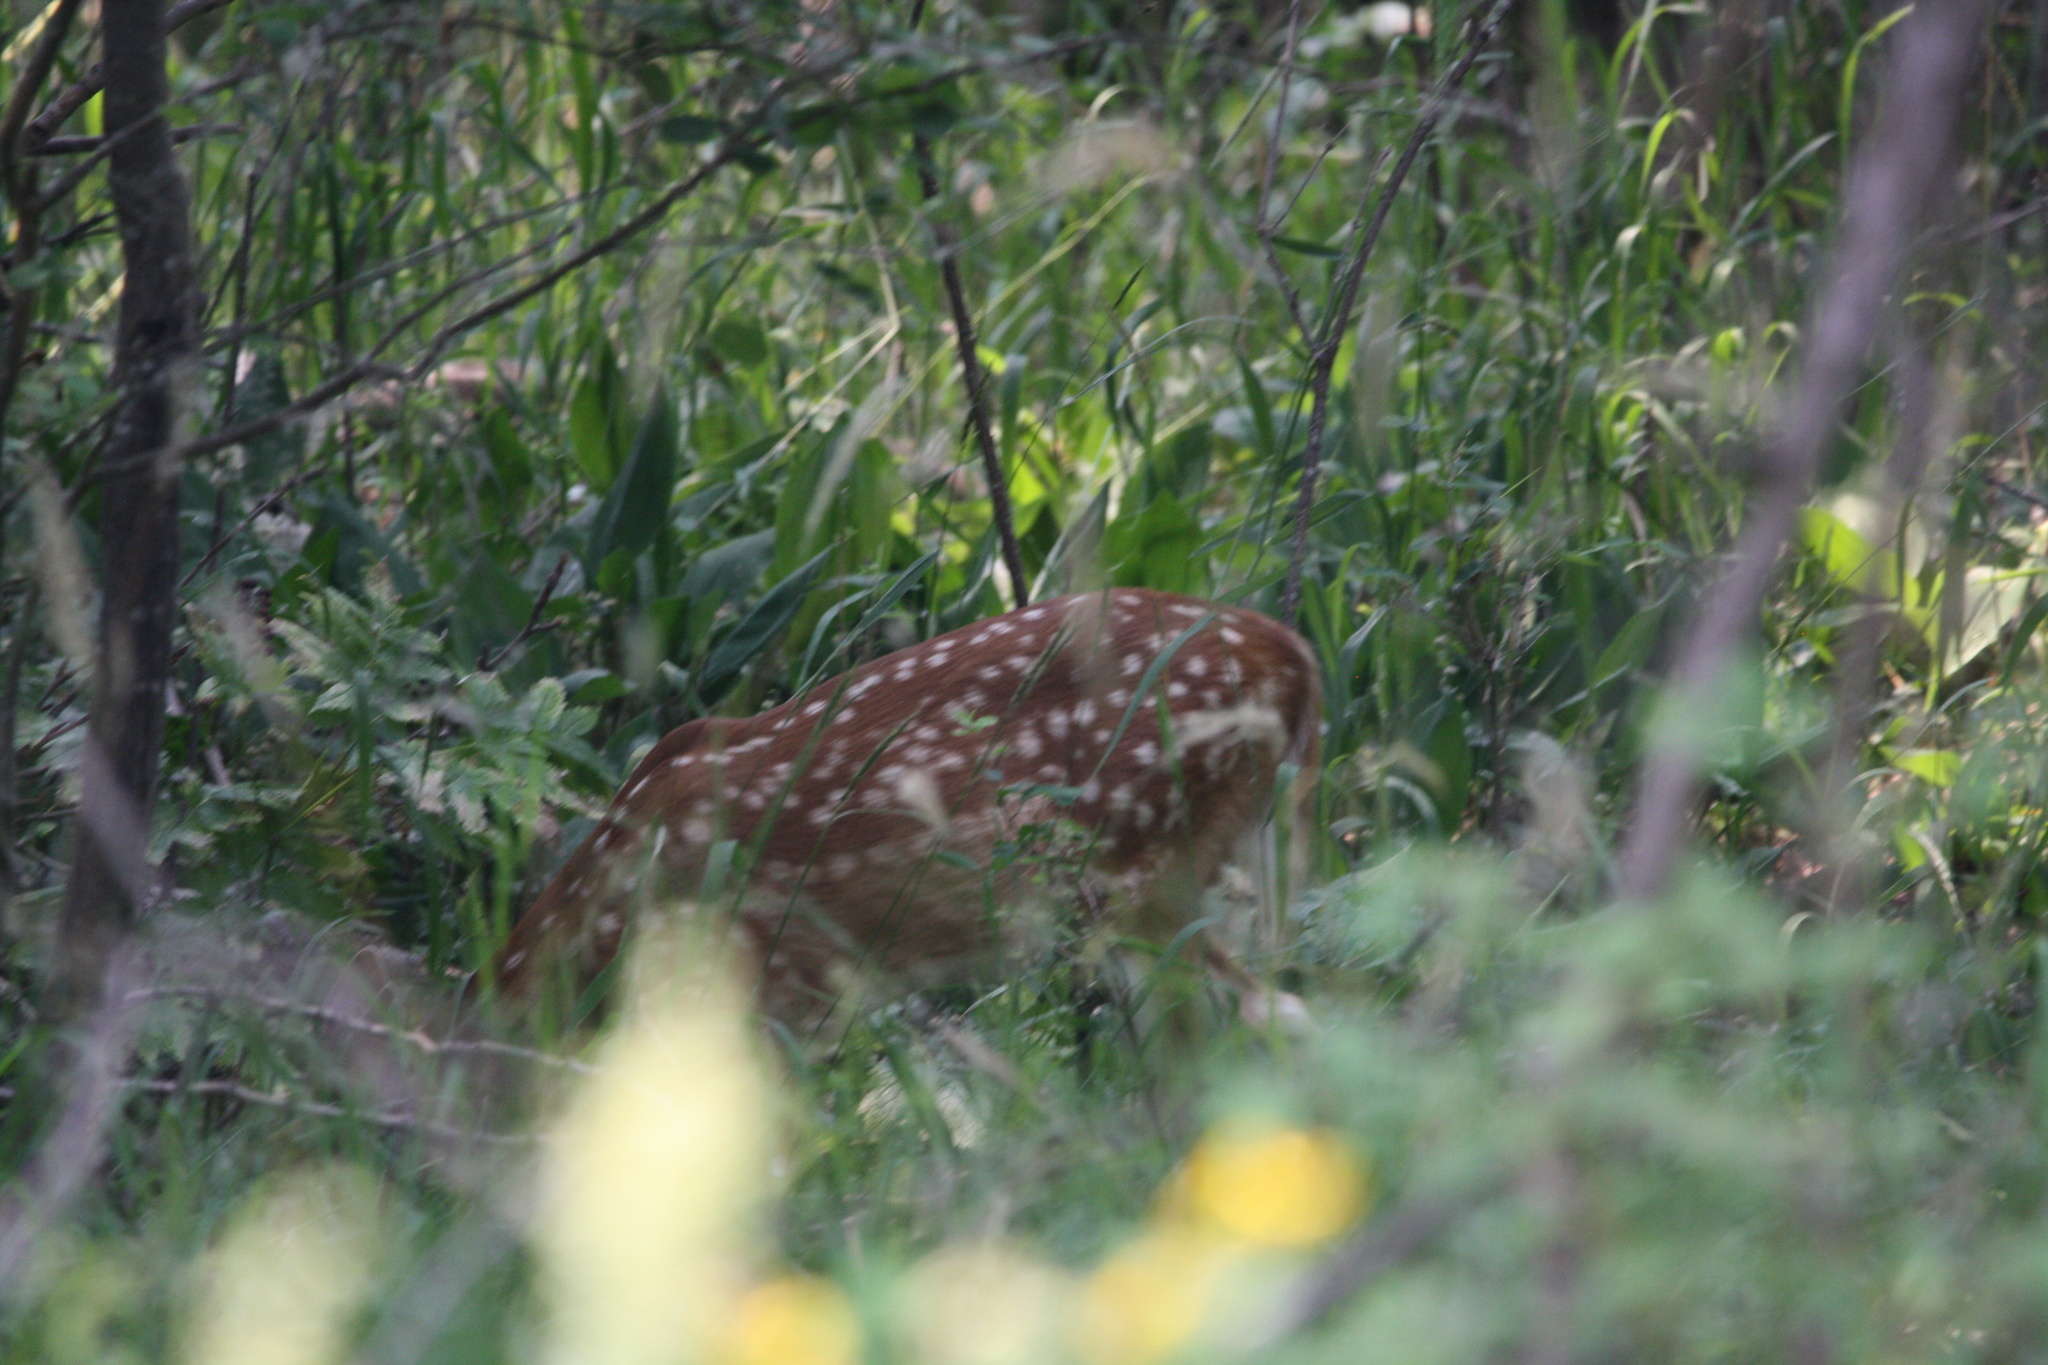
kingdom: Animalia
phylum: Chordata
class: Mammalia
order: Artiodactyla
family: Cervidae
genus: Odocoileus
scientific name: Odocoileus virginianus
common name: White-tailed deer
